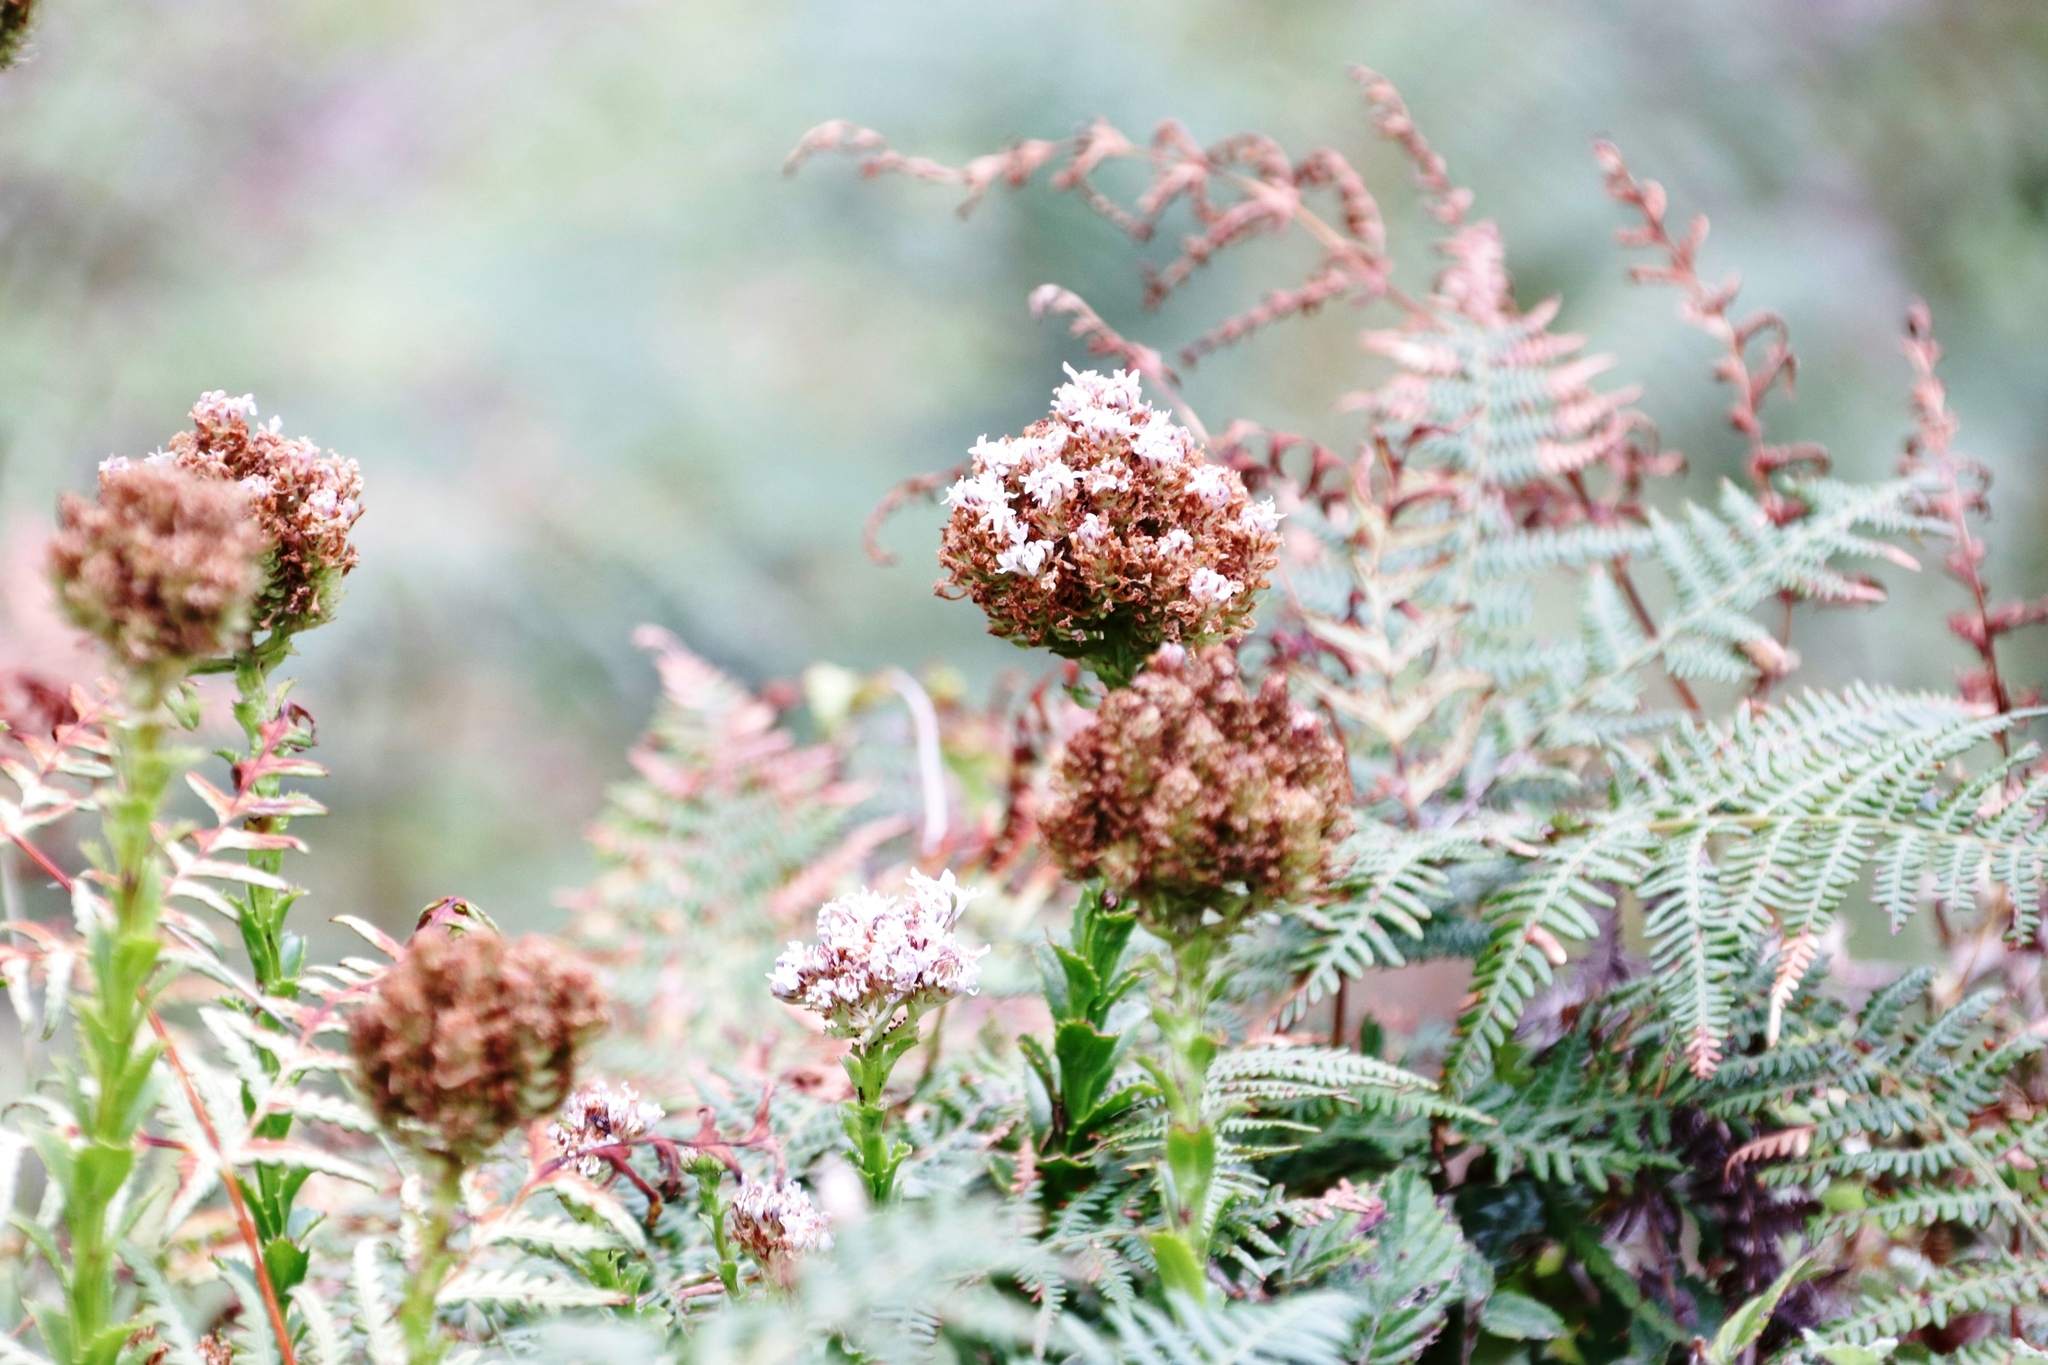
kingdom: Plantae
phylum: Tracheophyta
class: Magnoliopsida
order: Lamiales
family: Scrophulariaceae
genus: Pseudoselago
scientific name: Pseudoselago serrata
